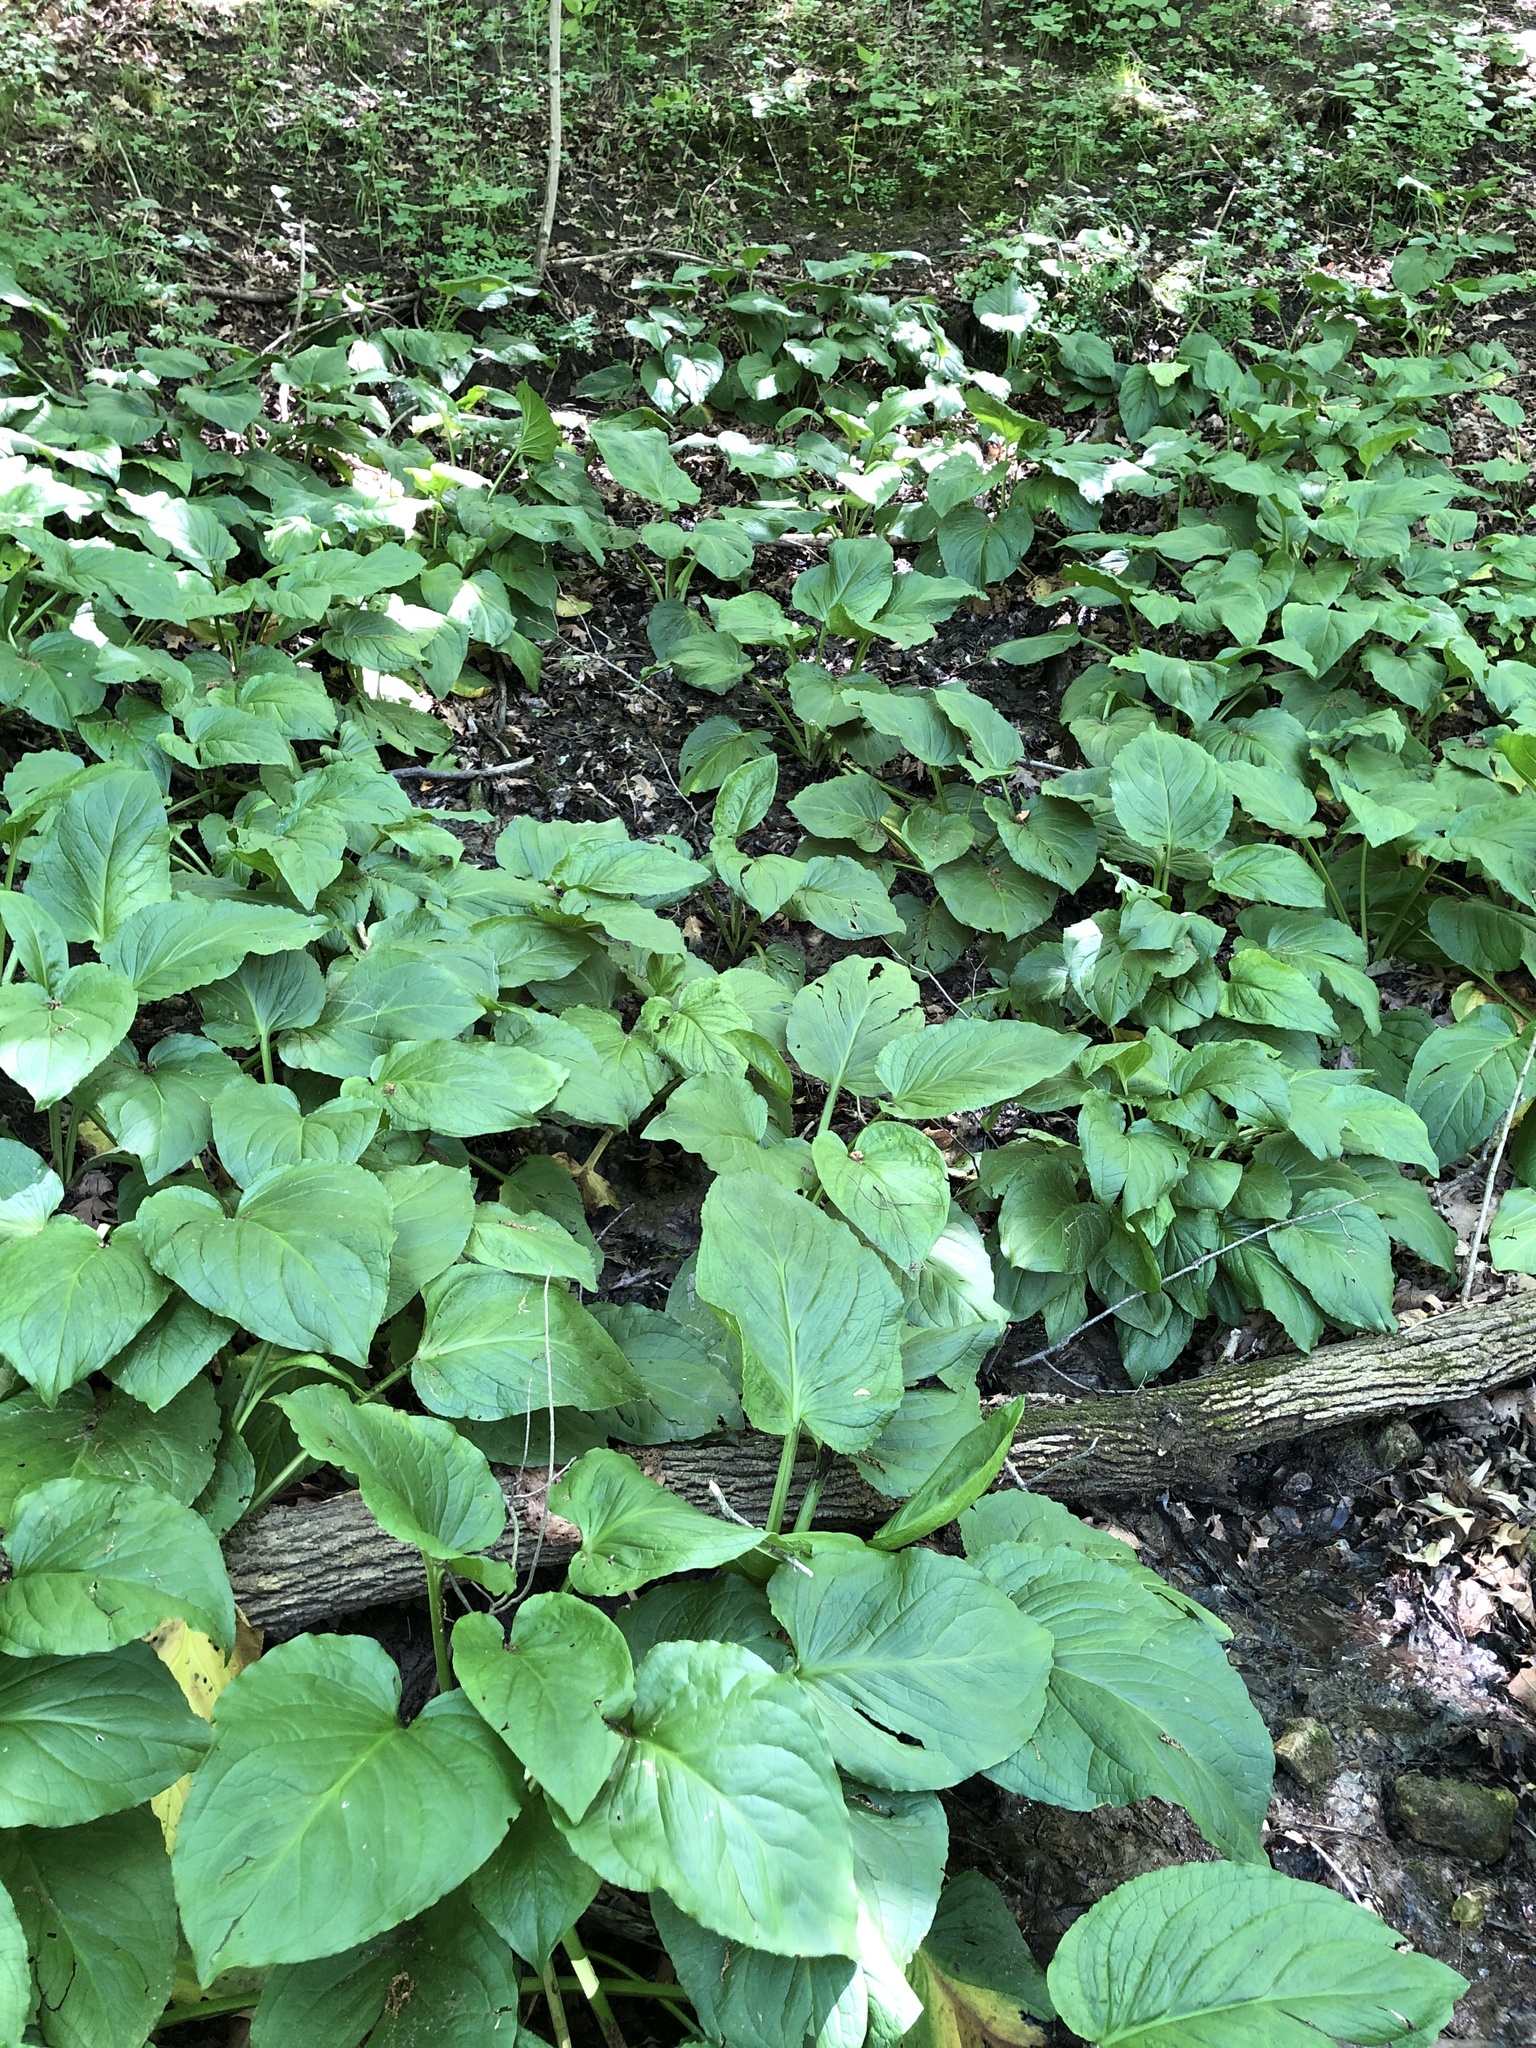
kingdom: Plantae
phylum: Tracheophyta
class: Liliopsida
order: Alismatales
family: Araceae
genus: Symplocarpus
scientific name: Symplocarpus foetidus
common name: Eastern skunk cabbage
